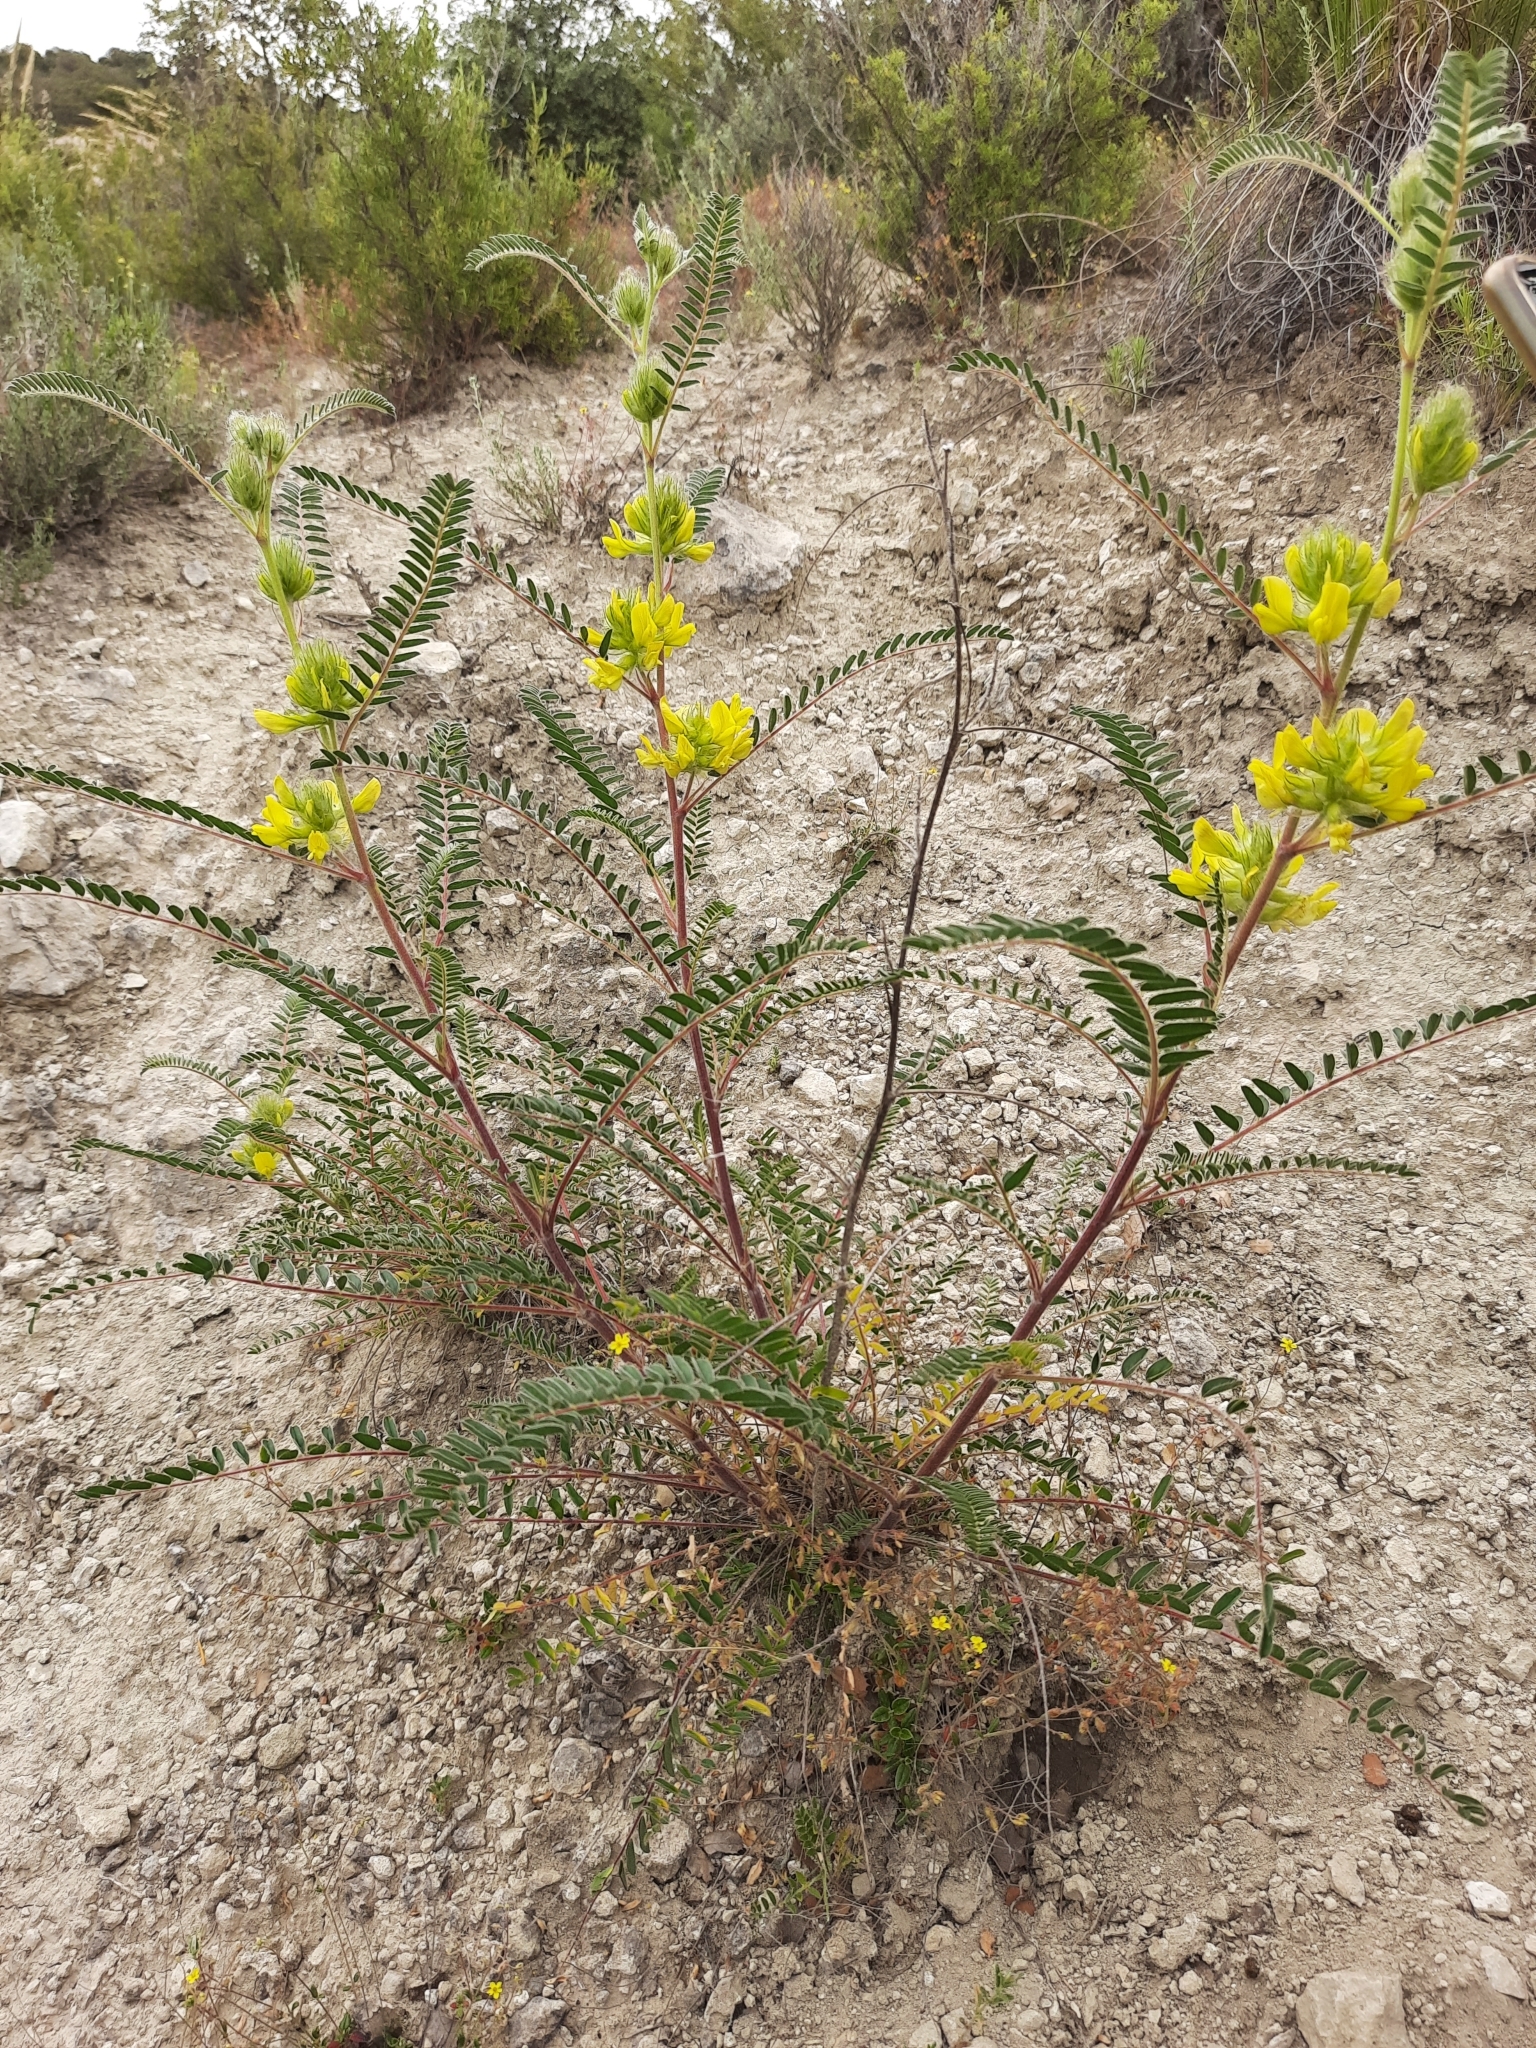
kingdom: Plantae
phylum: Tracheophyta
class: Magnoliopsida
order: Fabales
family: Fabaceae
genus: Astragalus
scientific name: Astragalus alopecuroides
